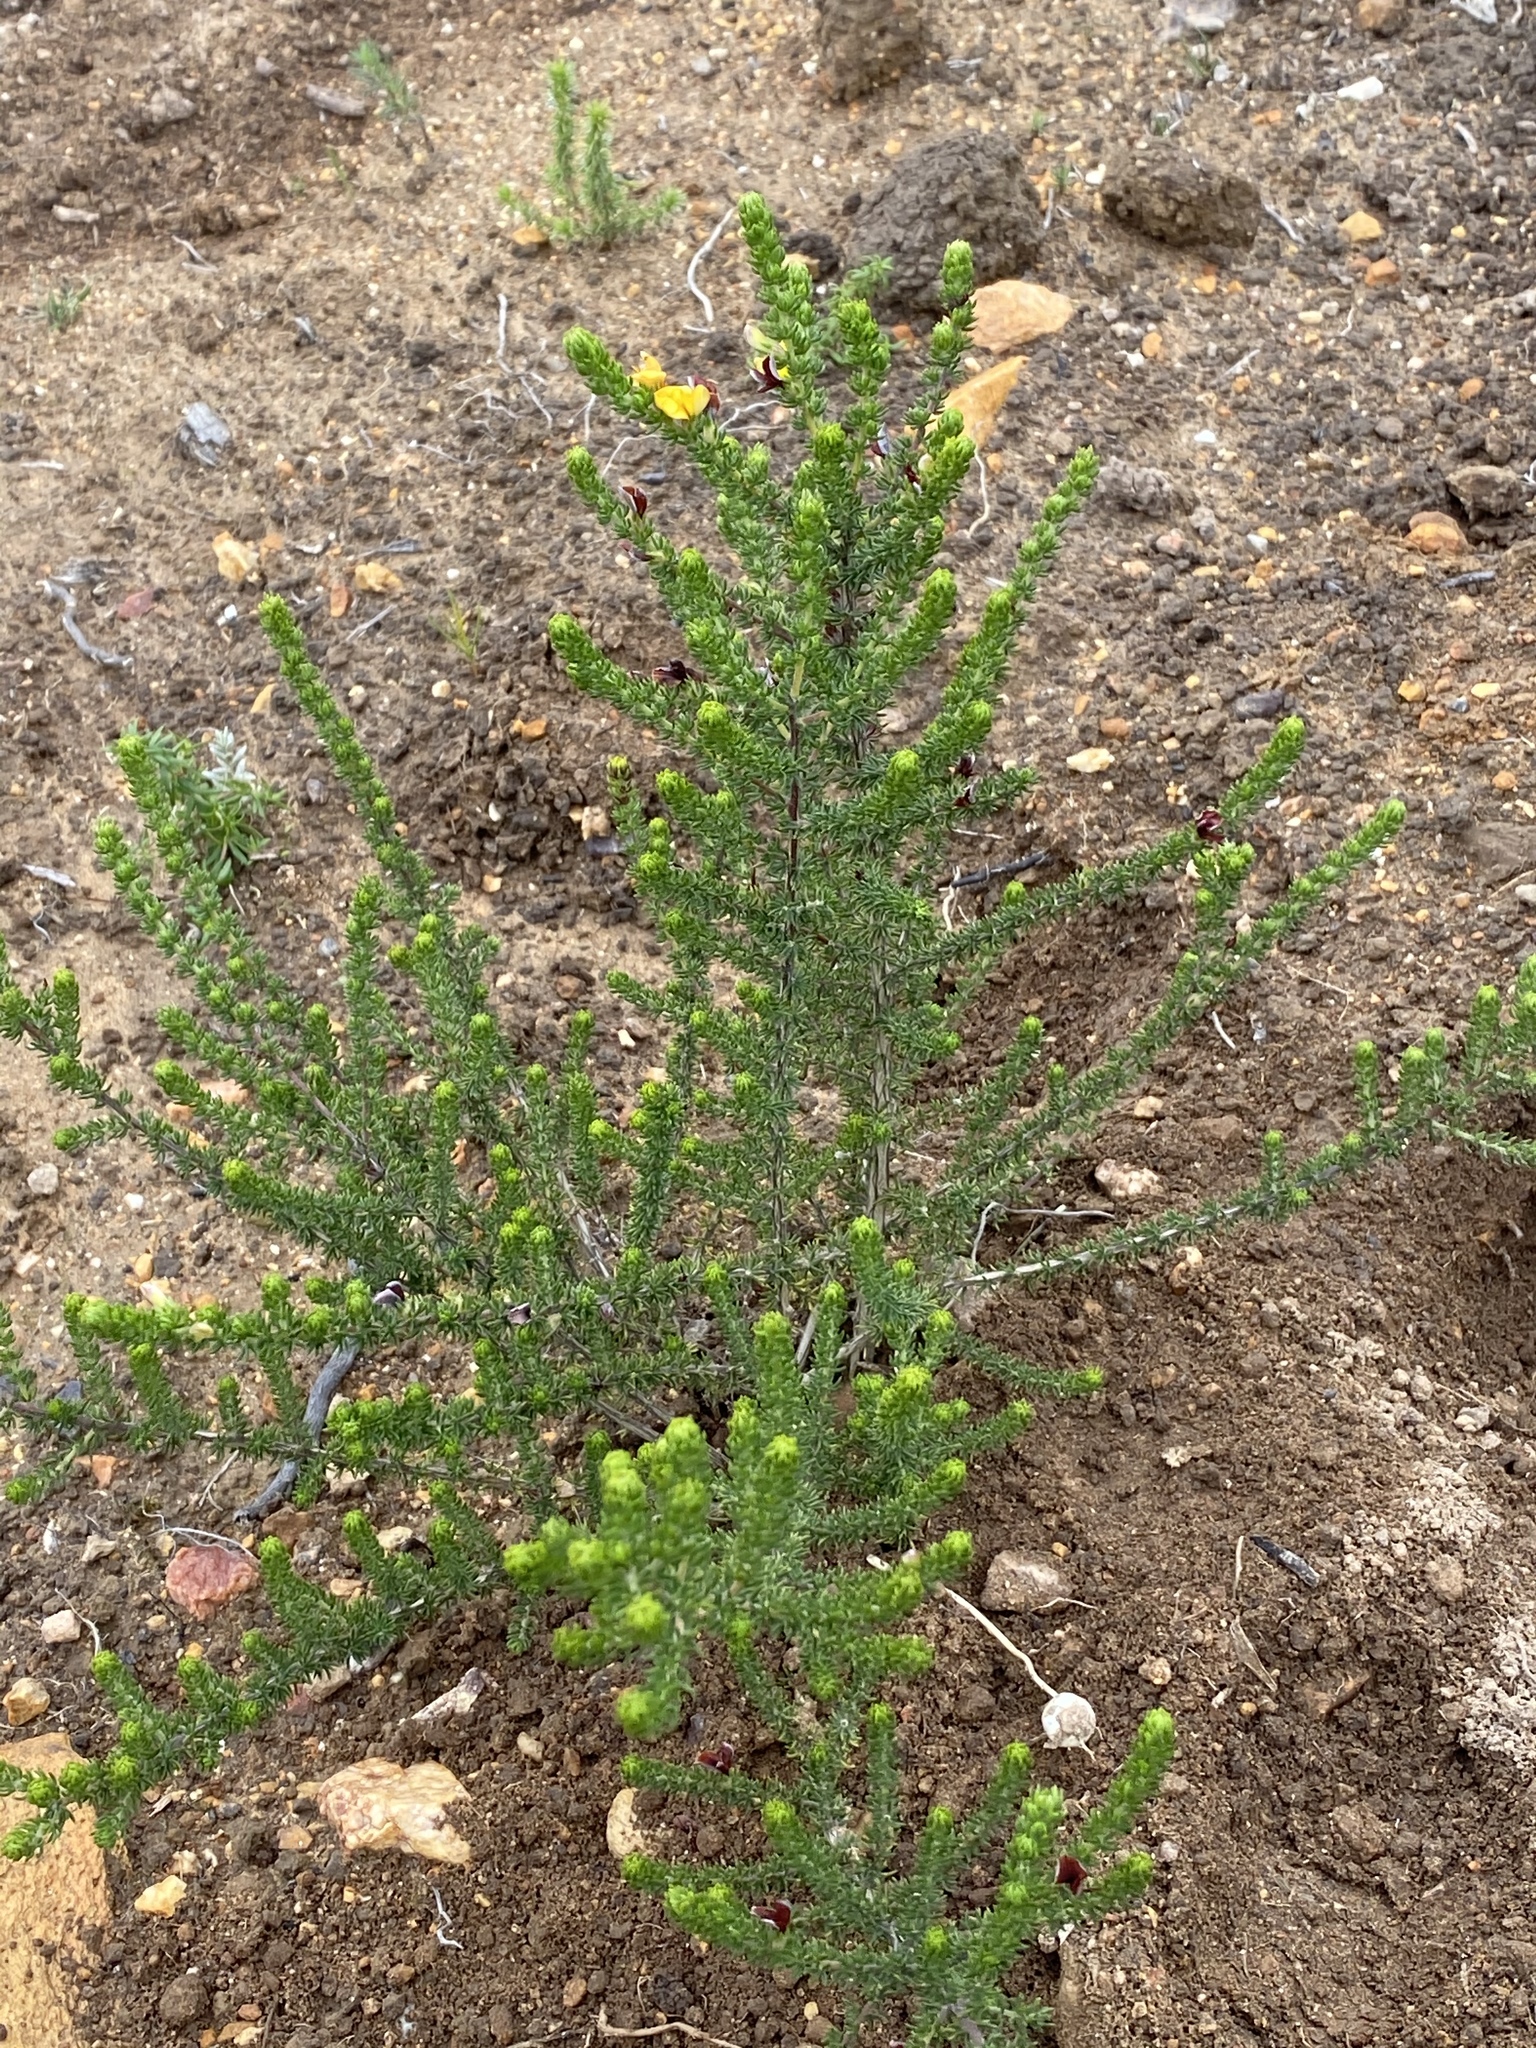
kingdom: Plantae
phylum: Tracheophyta
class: Magnoliopsida
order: Fabales
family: Fabaceae
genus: Aspalathus
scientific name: Aspalathus opaca
